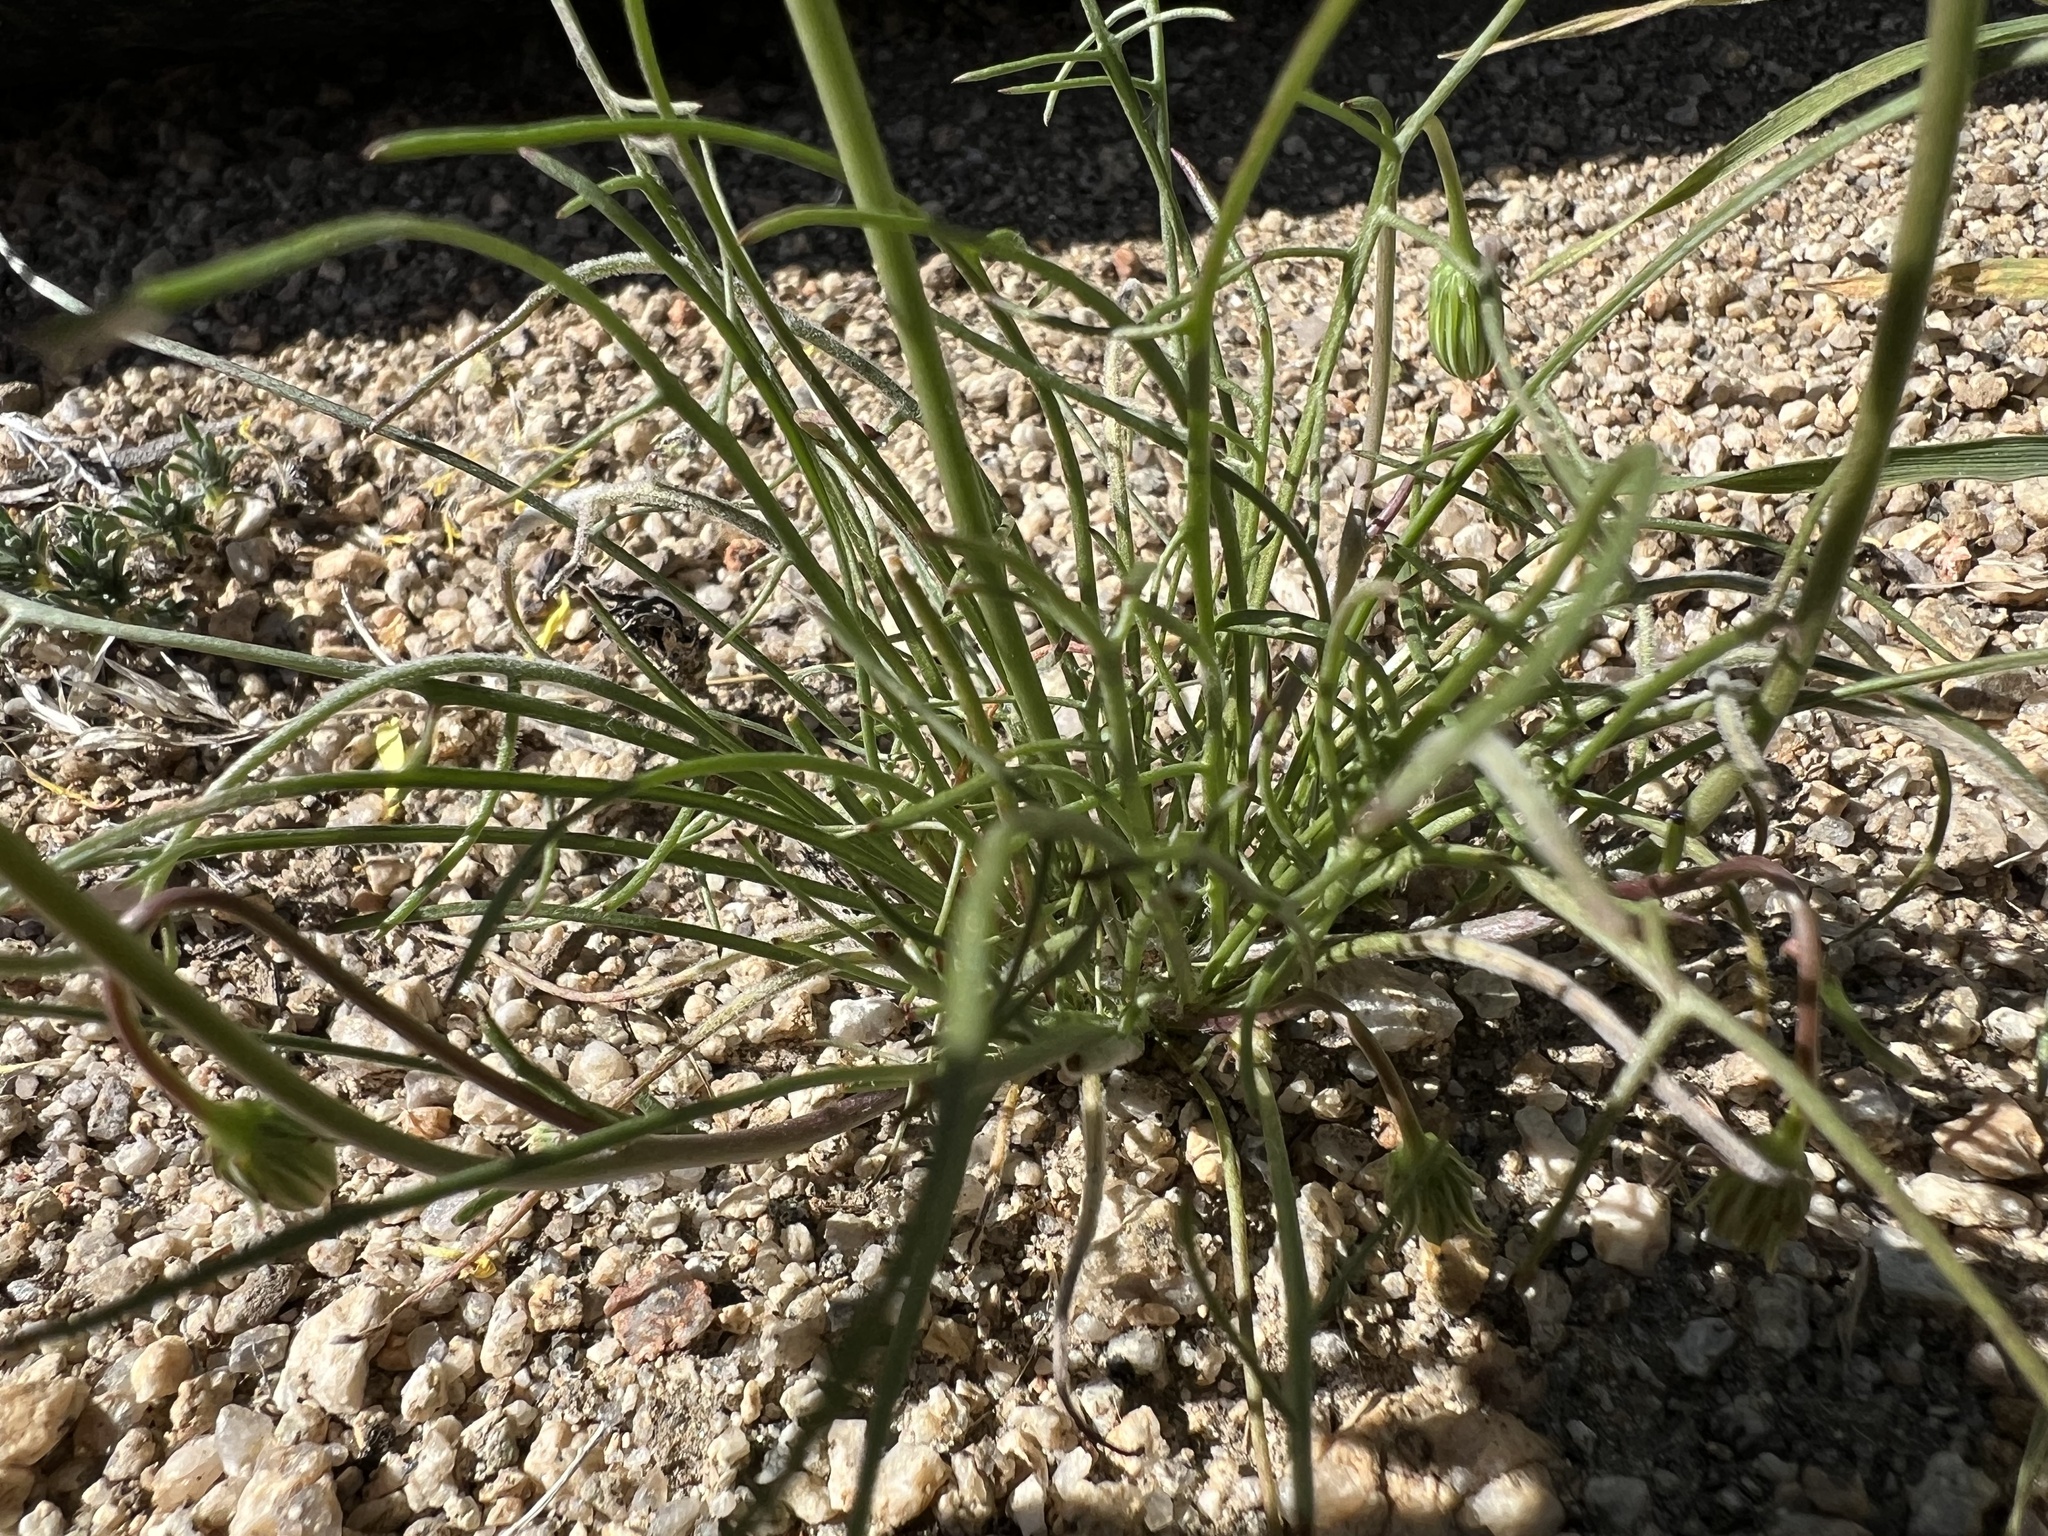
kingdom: Plantae
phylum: Tracheophyta
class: Magnoliopsida
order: Asterales
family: Asteraceae
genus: Malacothrix
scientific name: Malacothrix glabrata
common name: Smooth desert-dandelion
